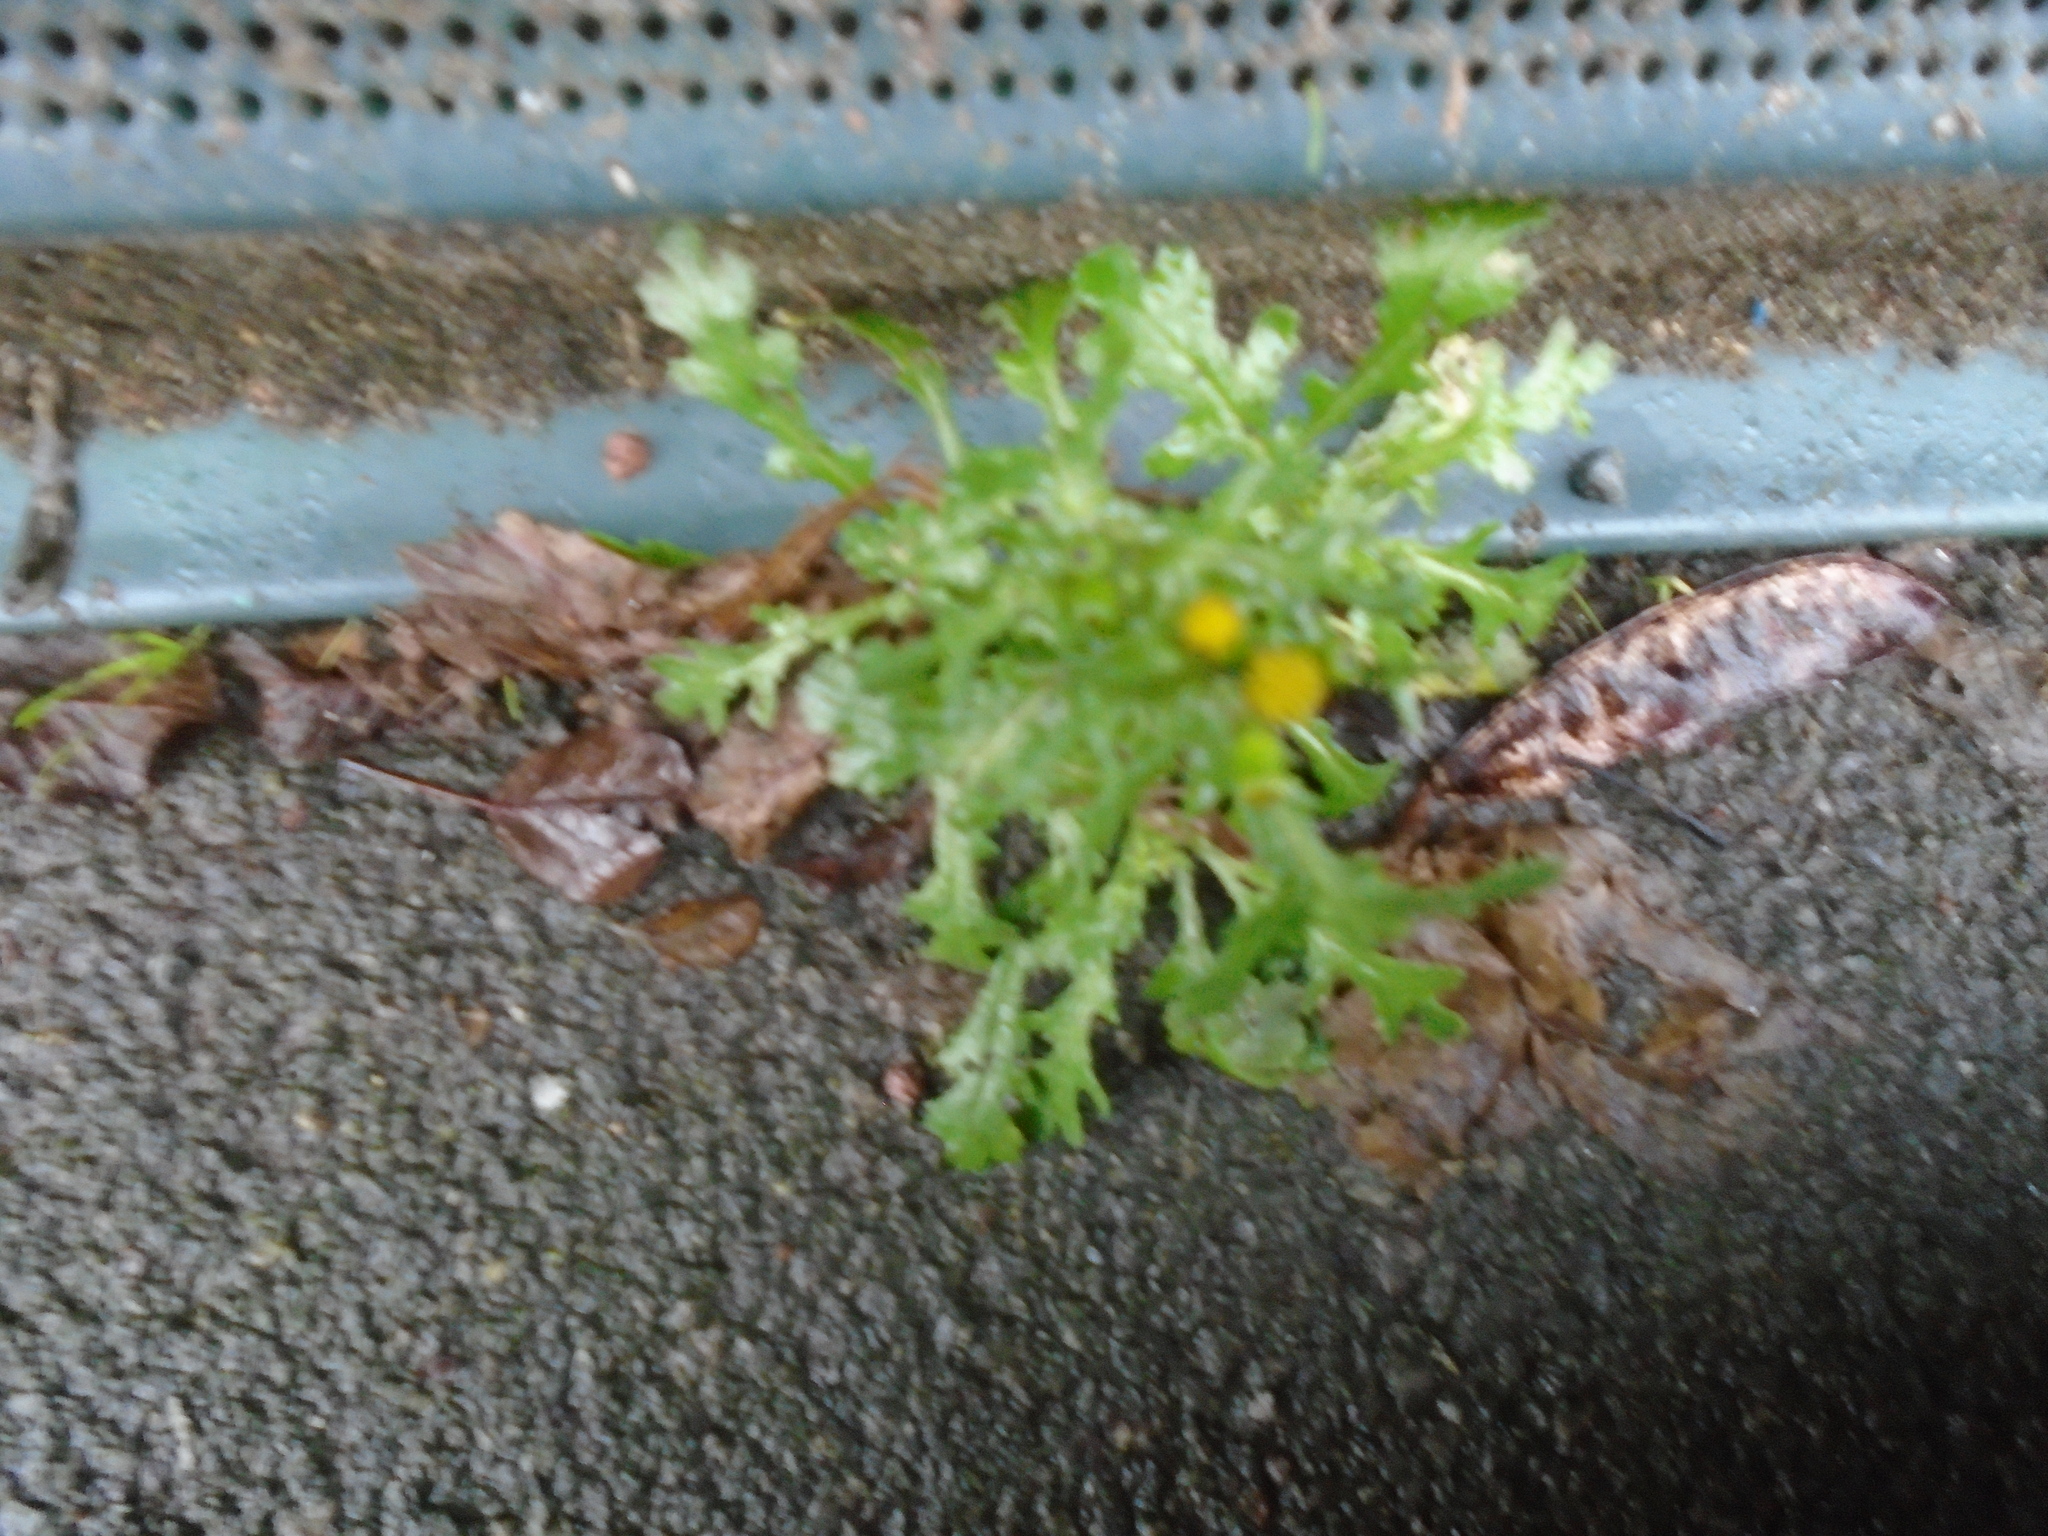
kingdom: Plantae
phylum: Tracheophyta
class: Magnoliopsida
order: Asterales
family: Asteraceae
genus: Senecio
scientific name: Senecio vulgaris
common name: Old-man-in-the-spring
